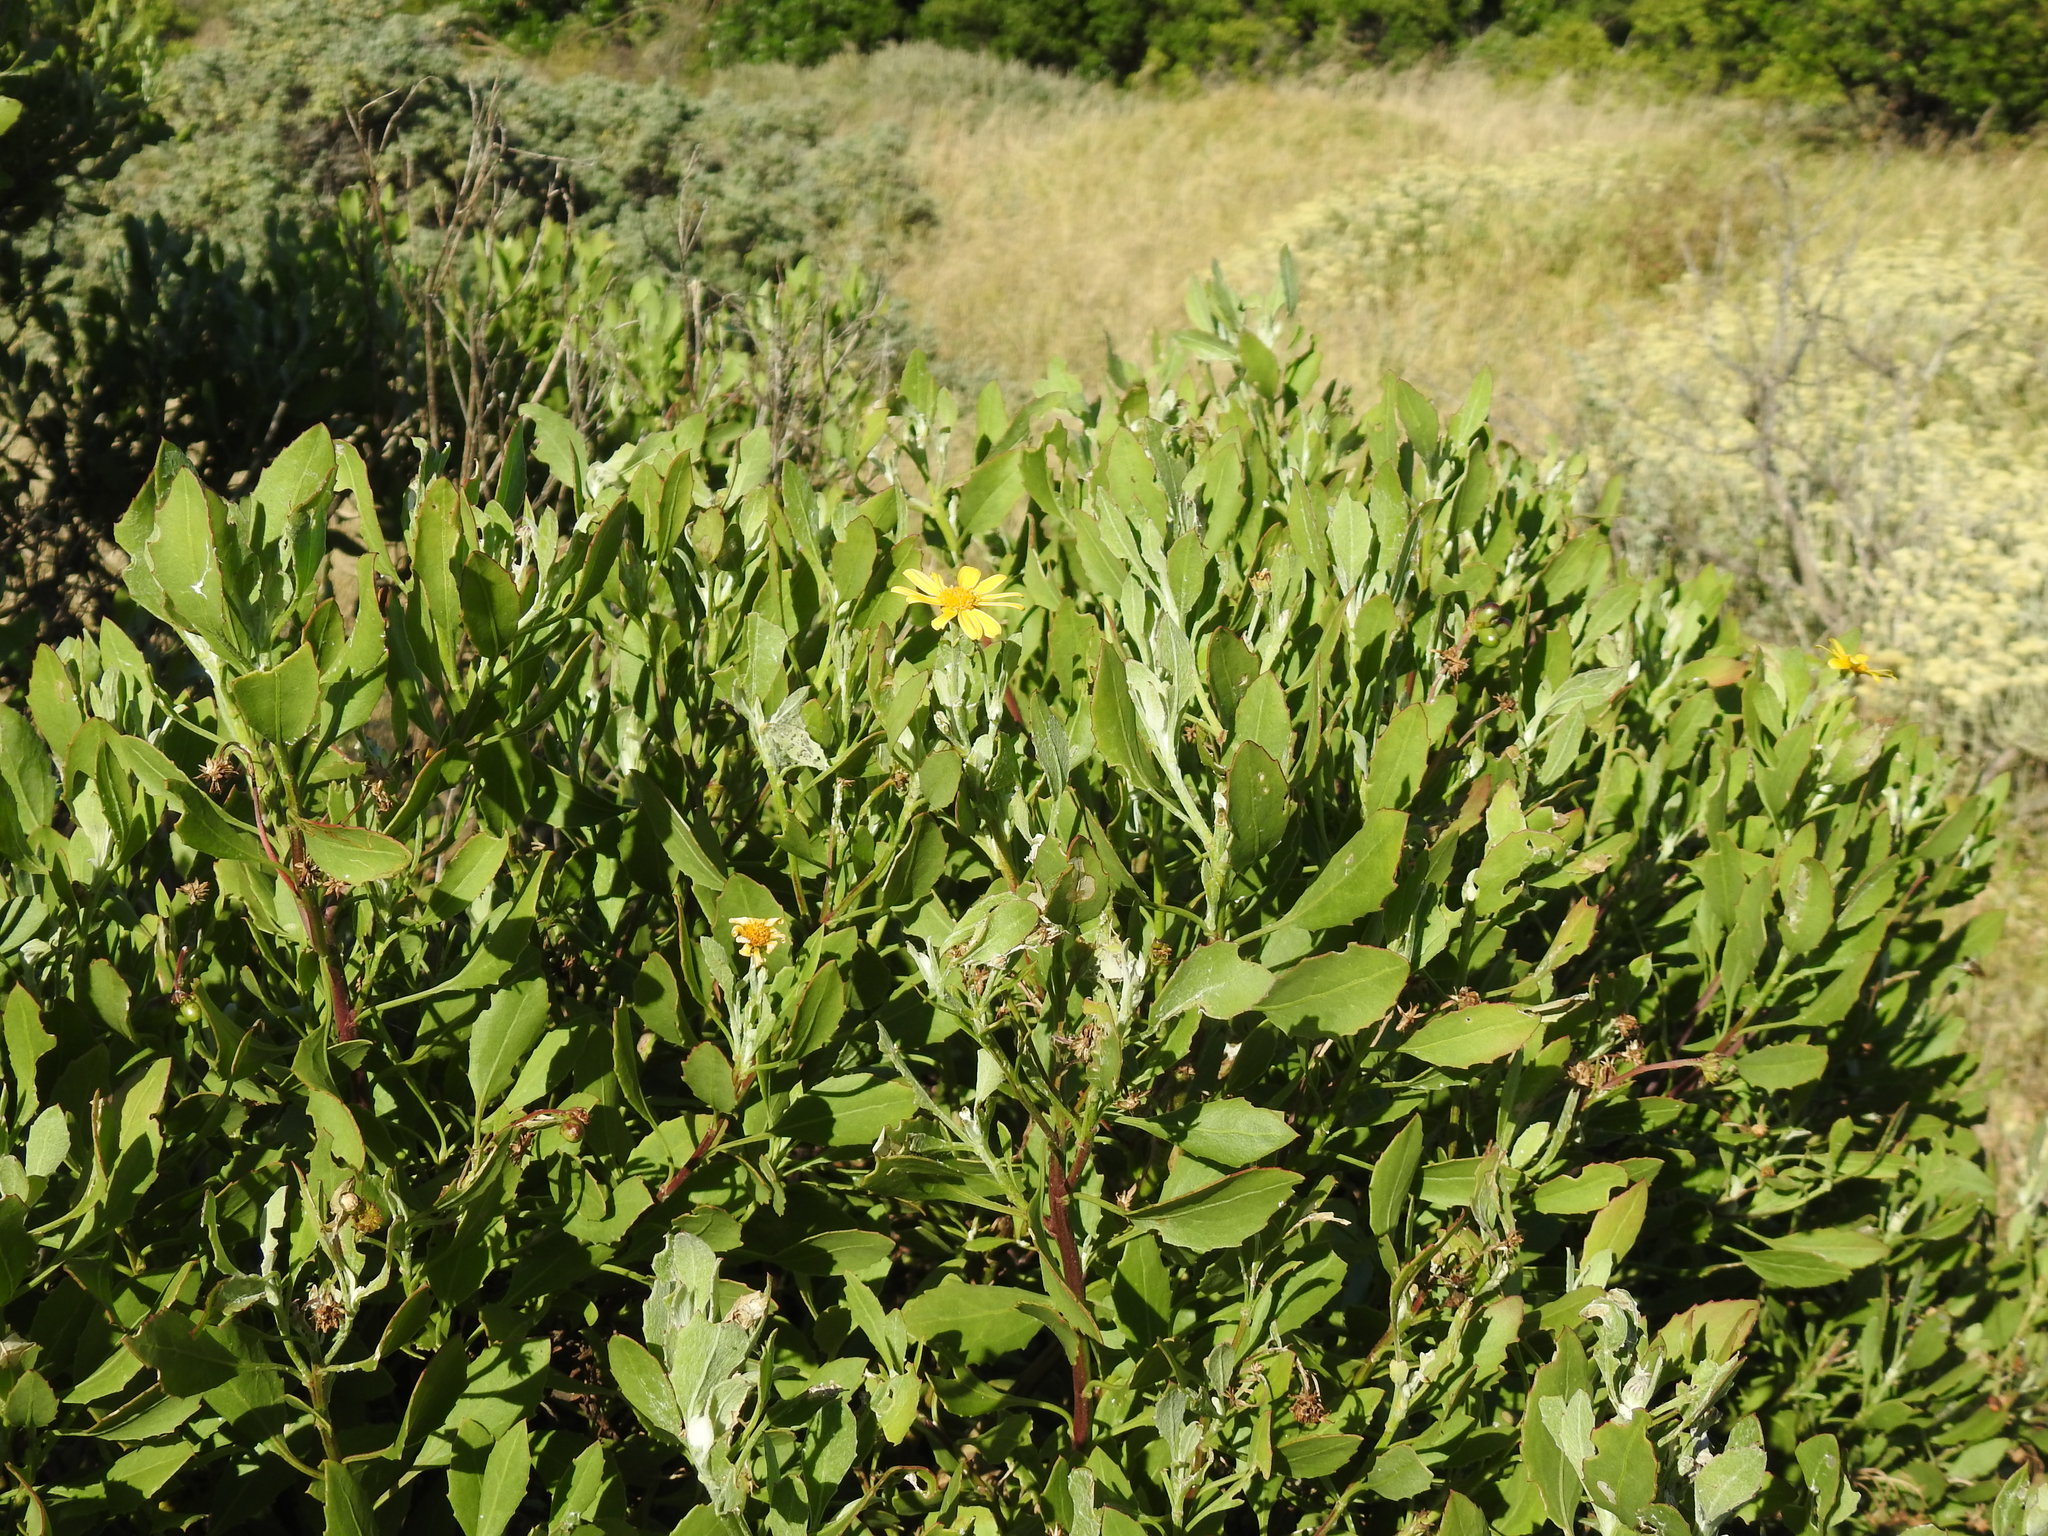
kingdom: Plantae
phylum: Tracheophyta
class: Magnoliopsida
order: Asterales
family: Asteraceae
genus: Osteospermum
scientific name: Osteospermum moniliferum
